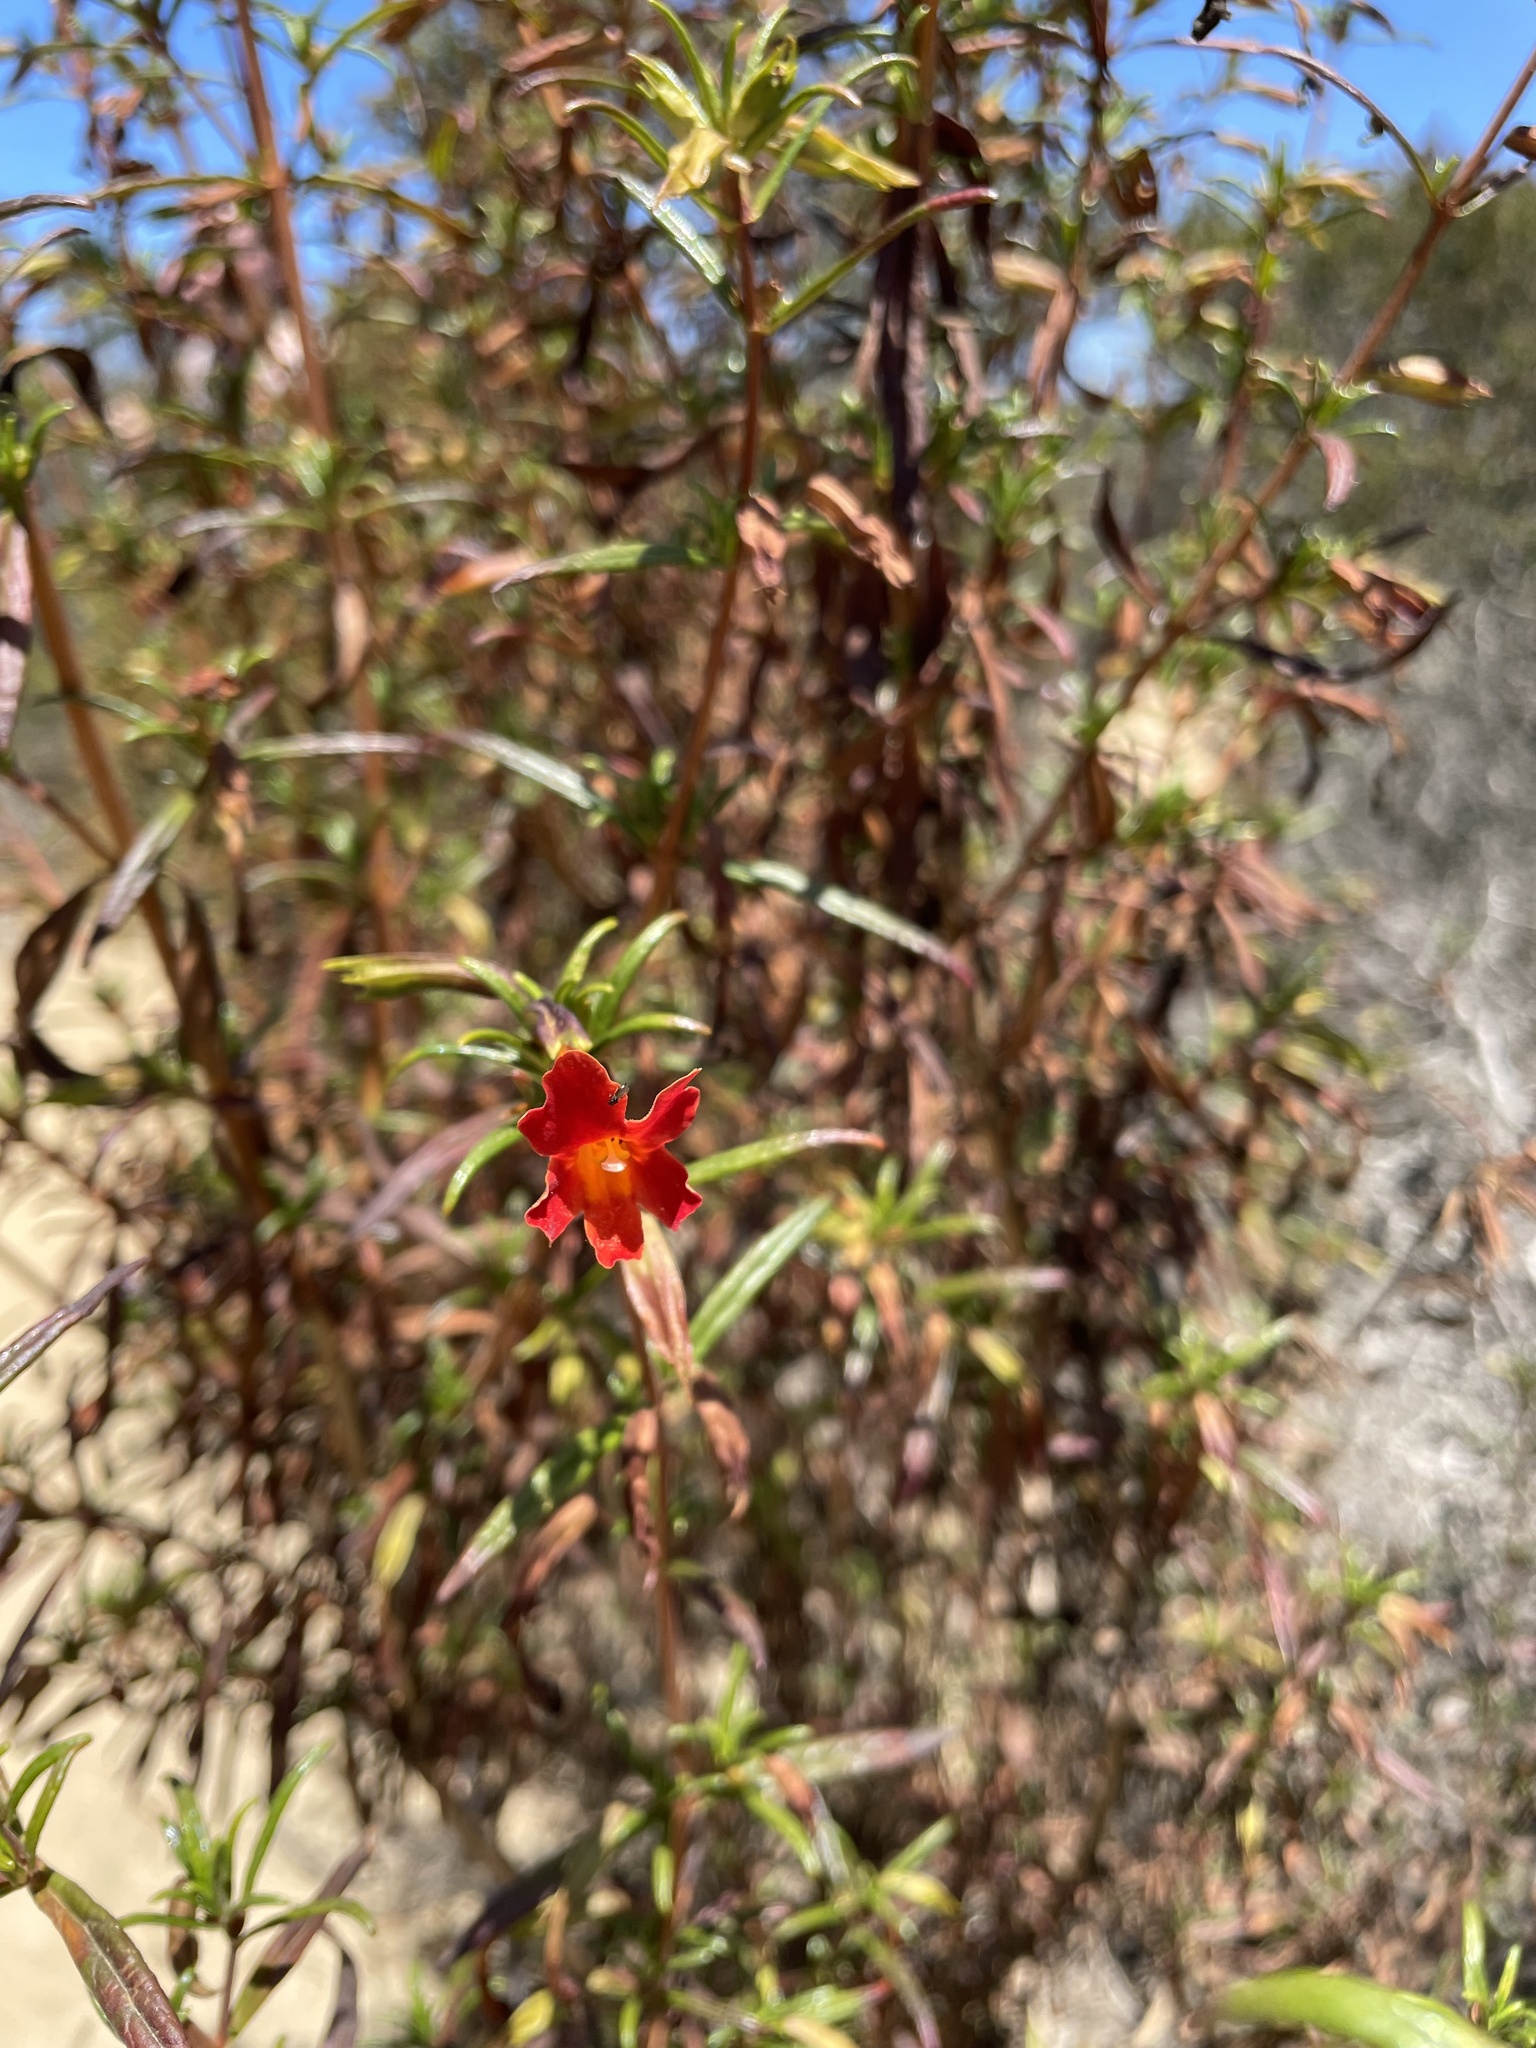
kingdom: Plantae
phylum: Tracheophyta
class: Magnoliopsida
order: Lamiales
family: Phrymaceae
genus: Diplacus
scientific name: Diplacus puniceus
